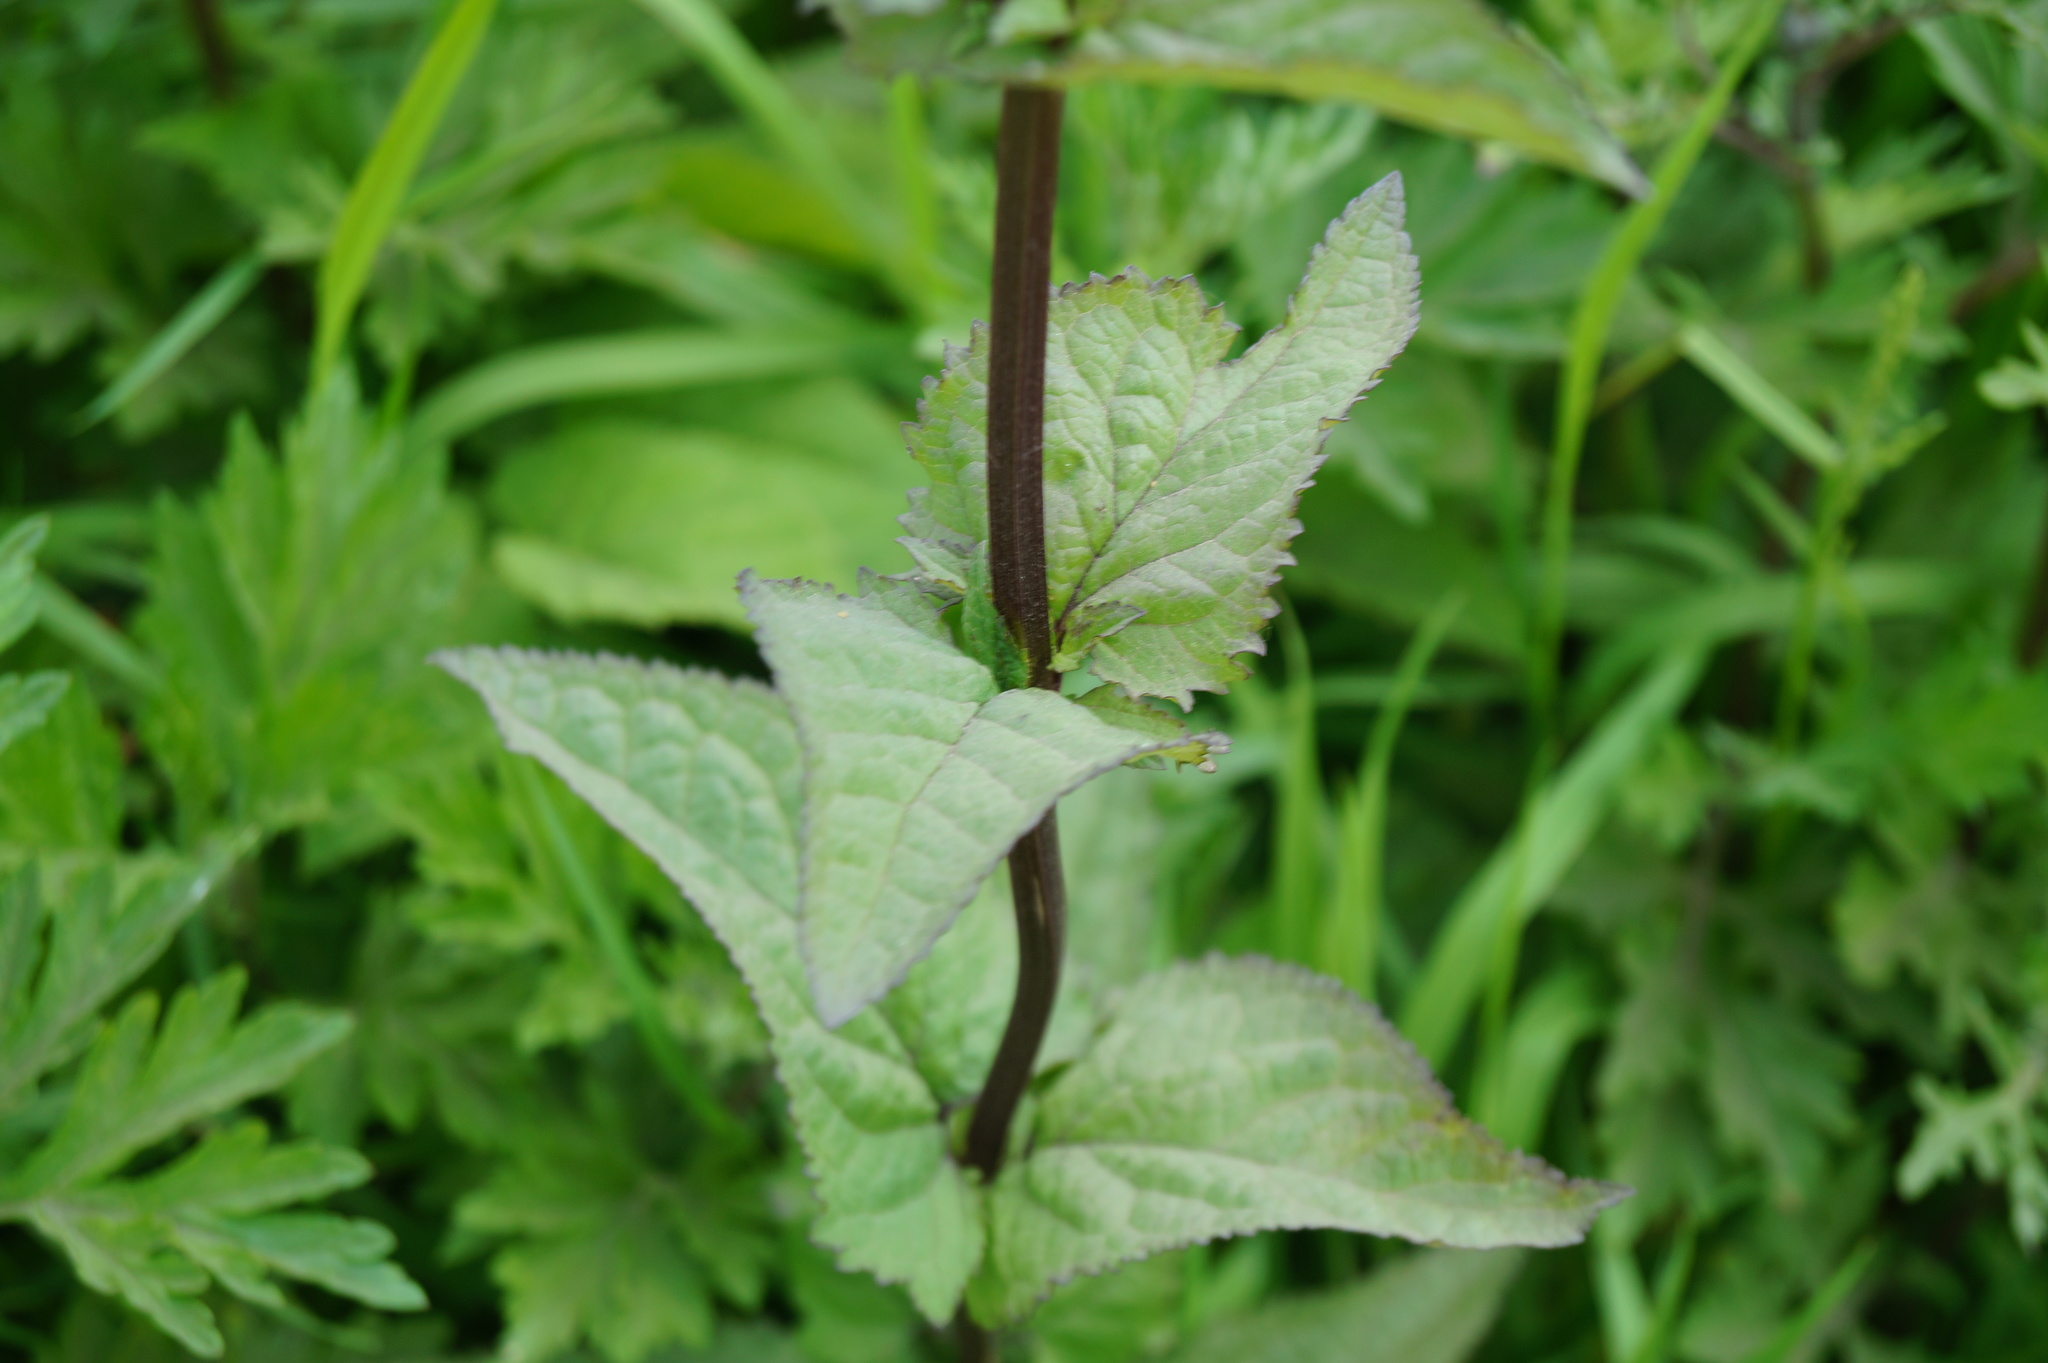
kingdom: Plantae
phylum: Tracheophyta
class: Magnoliopsida
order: Lamiales
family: Scrophulariaceae
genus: Scrophularia
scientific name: Scrophularia nodosa
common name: Common figwort
